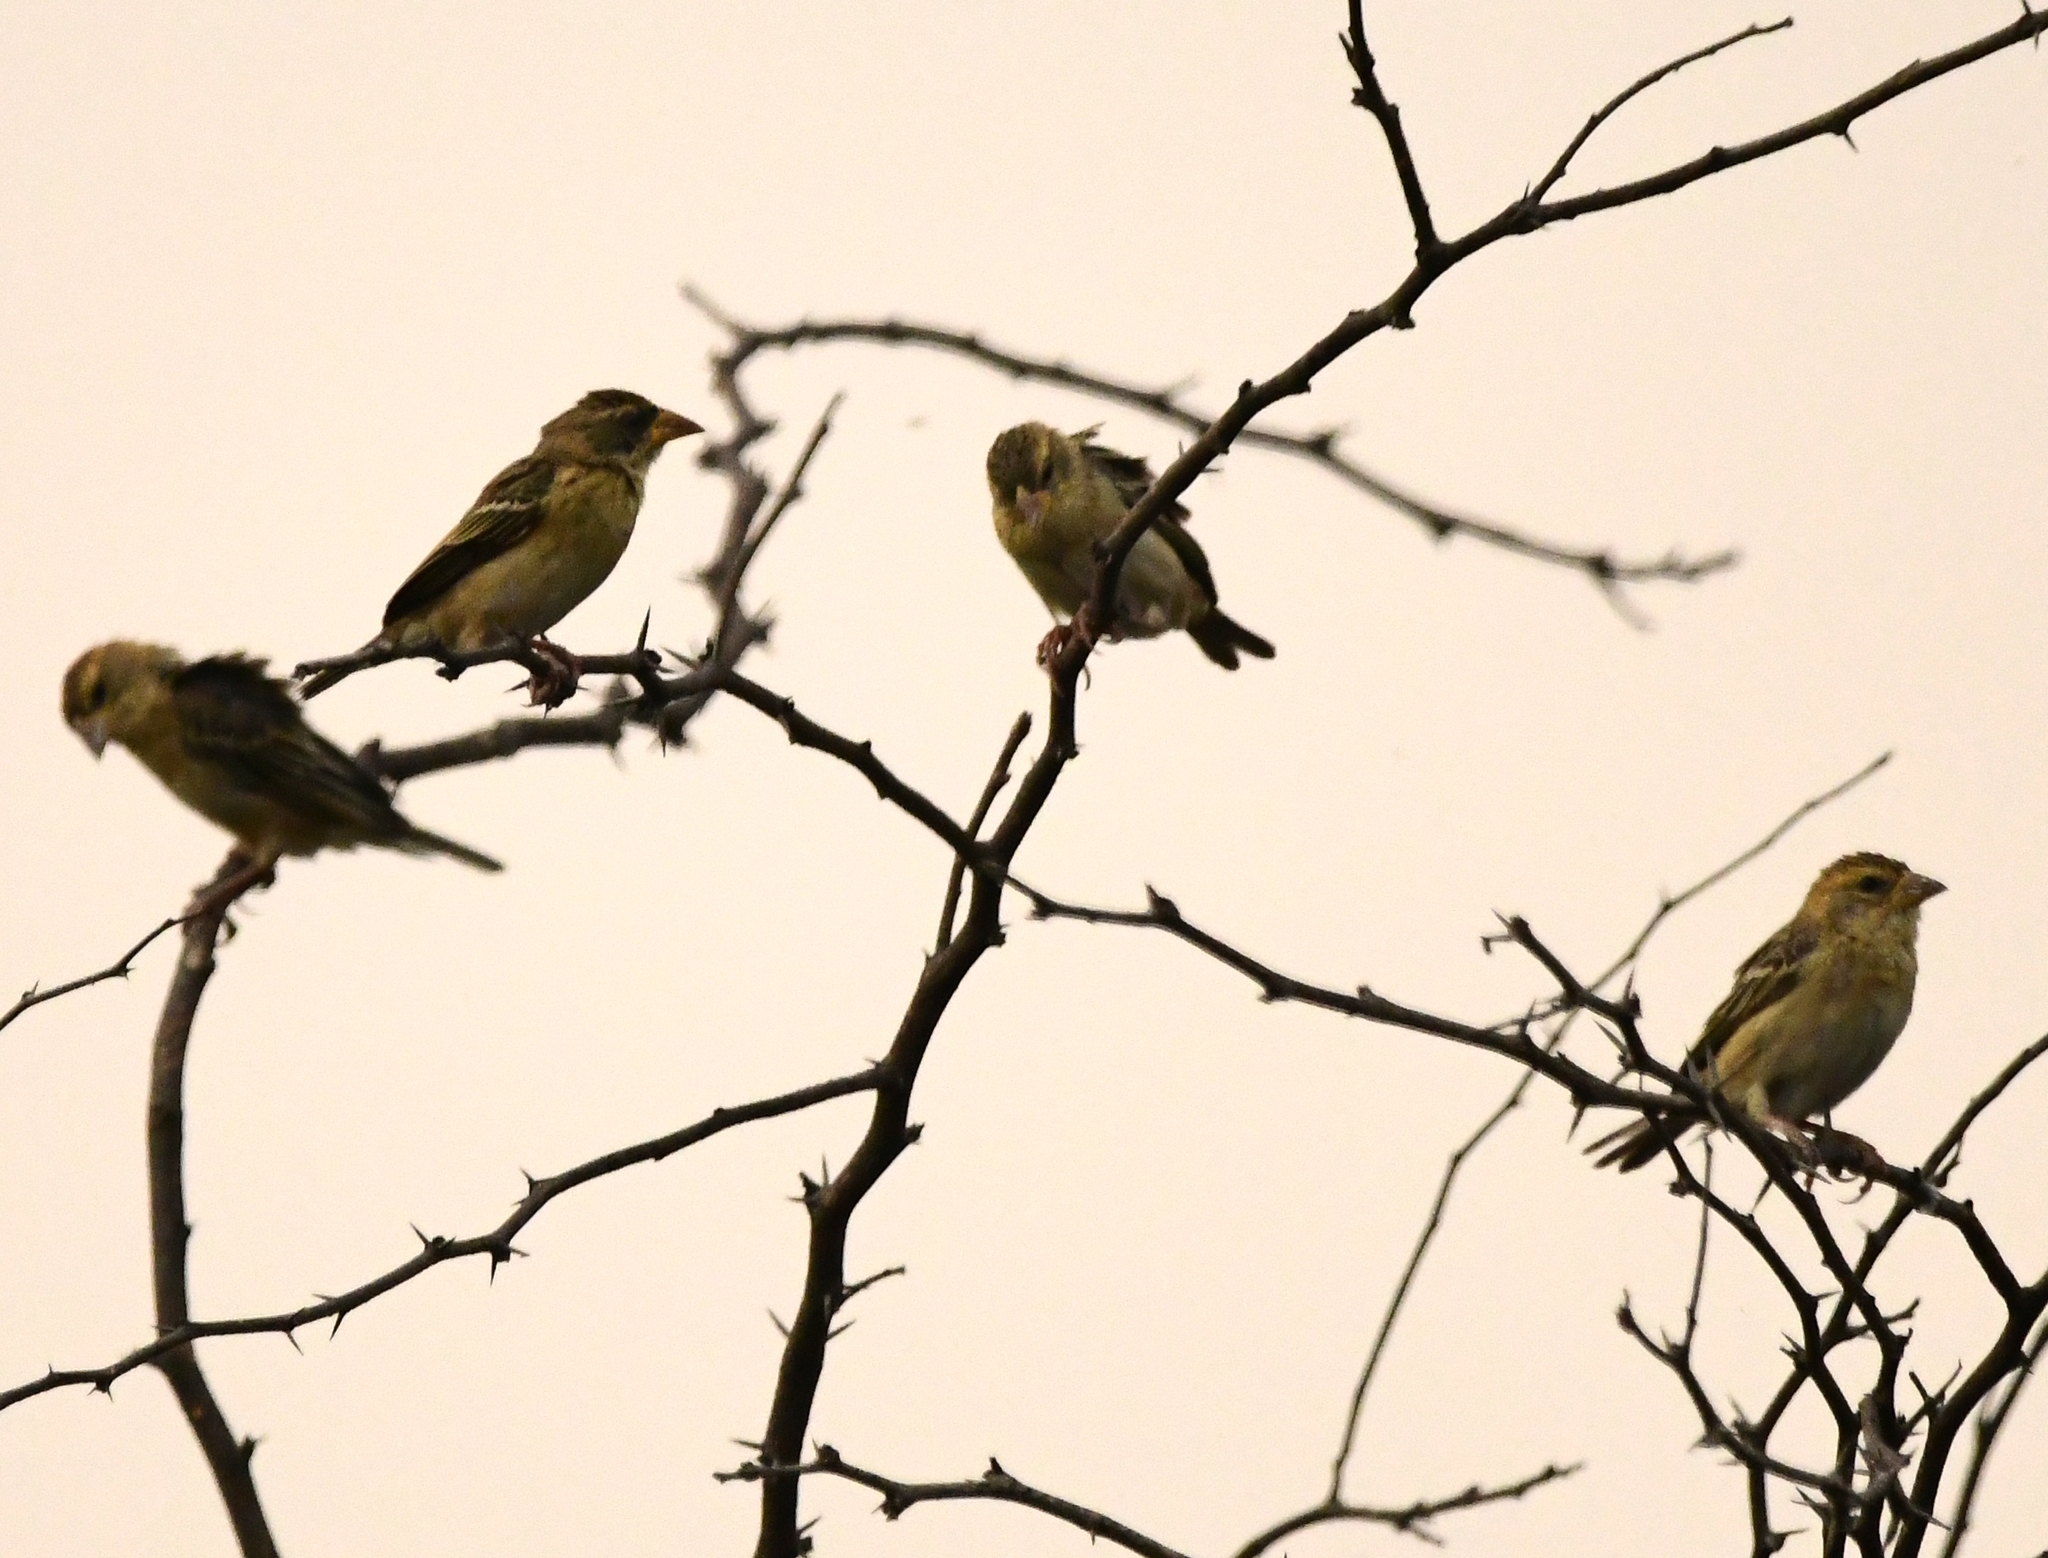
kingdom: Animalia
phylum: Chordata
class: Aves
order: Passeriformes
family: Ploceidae
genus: Ploceus
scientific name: Ploceus philippinus
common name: Baya weaver
